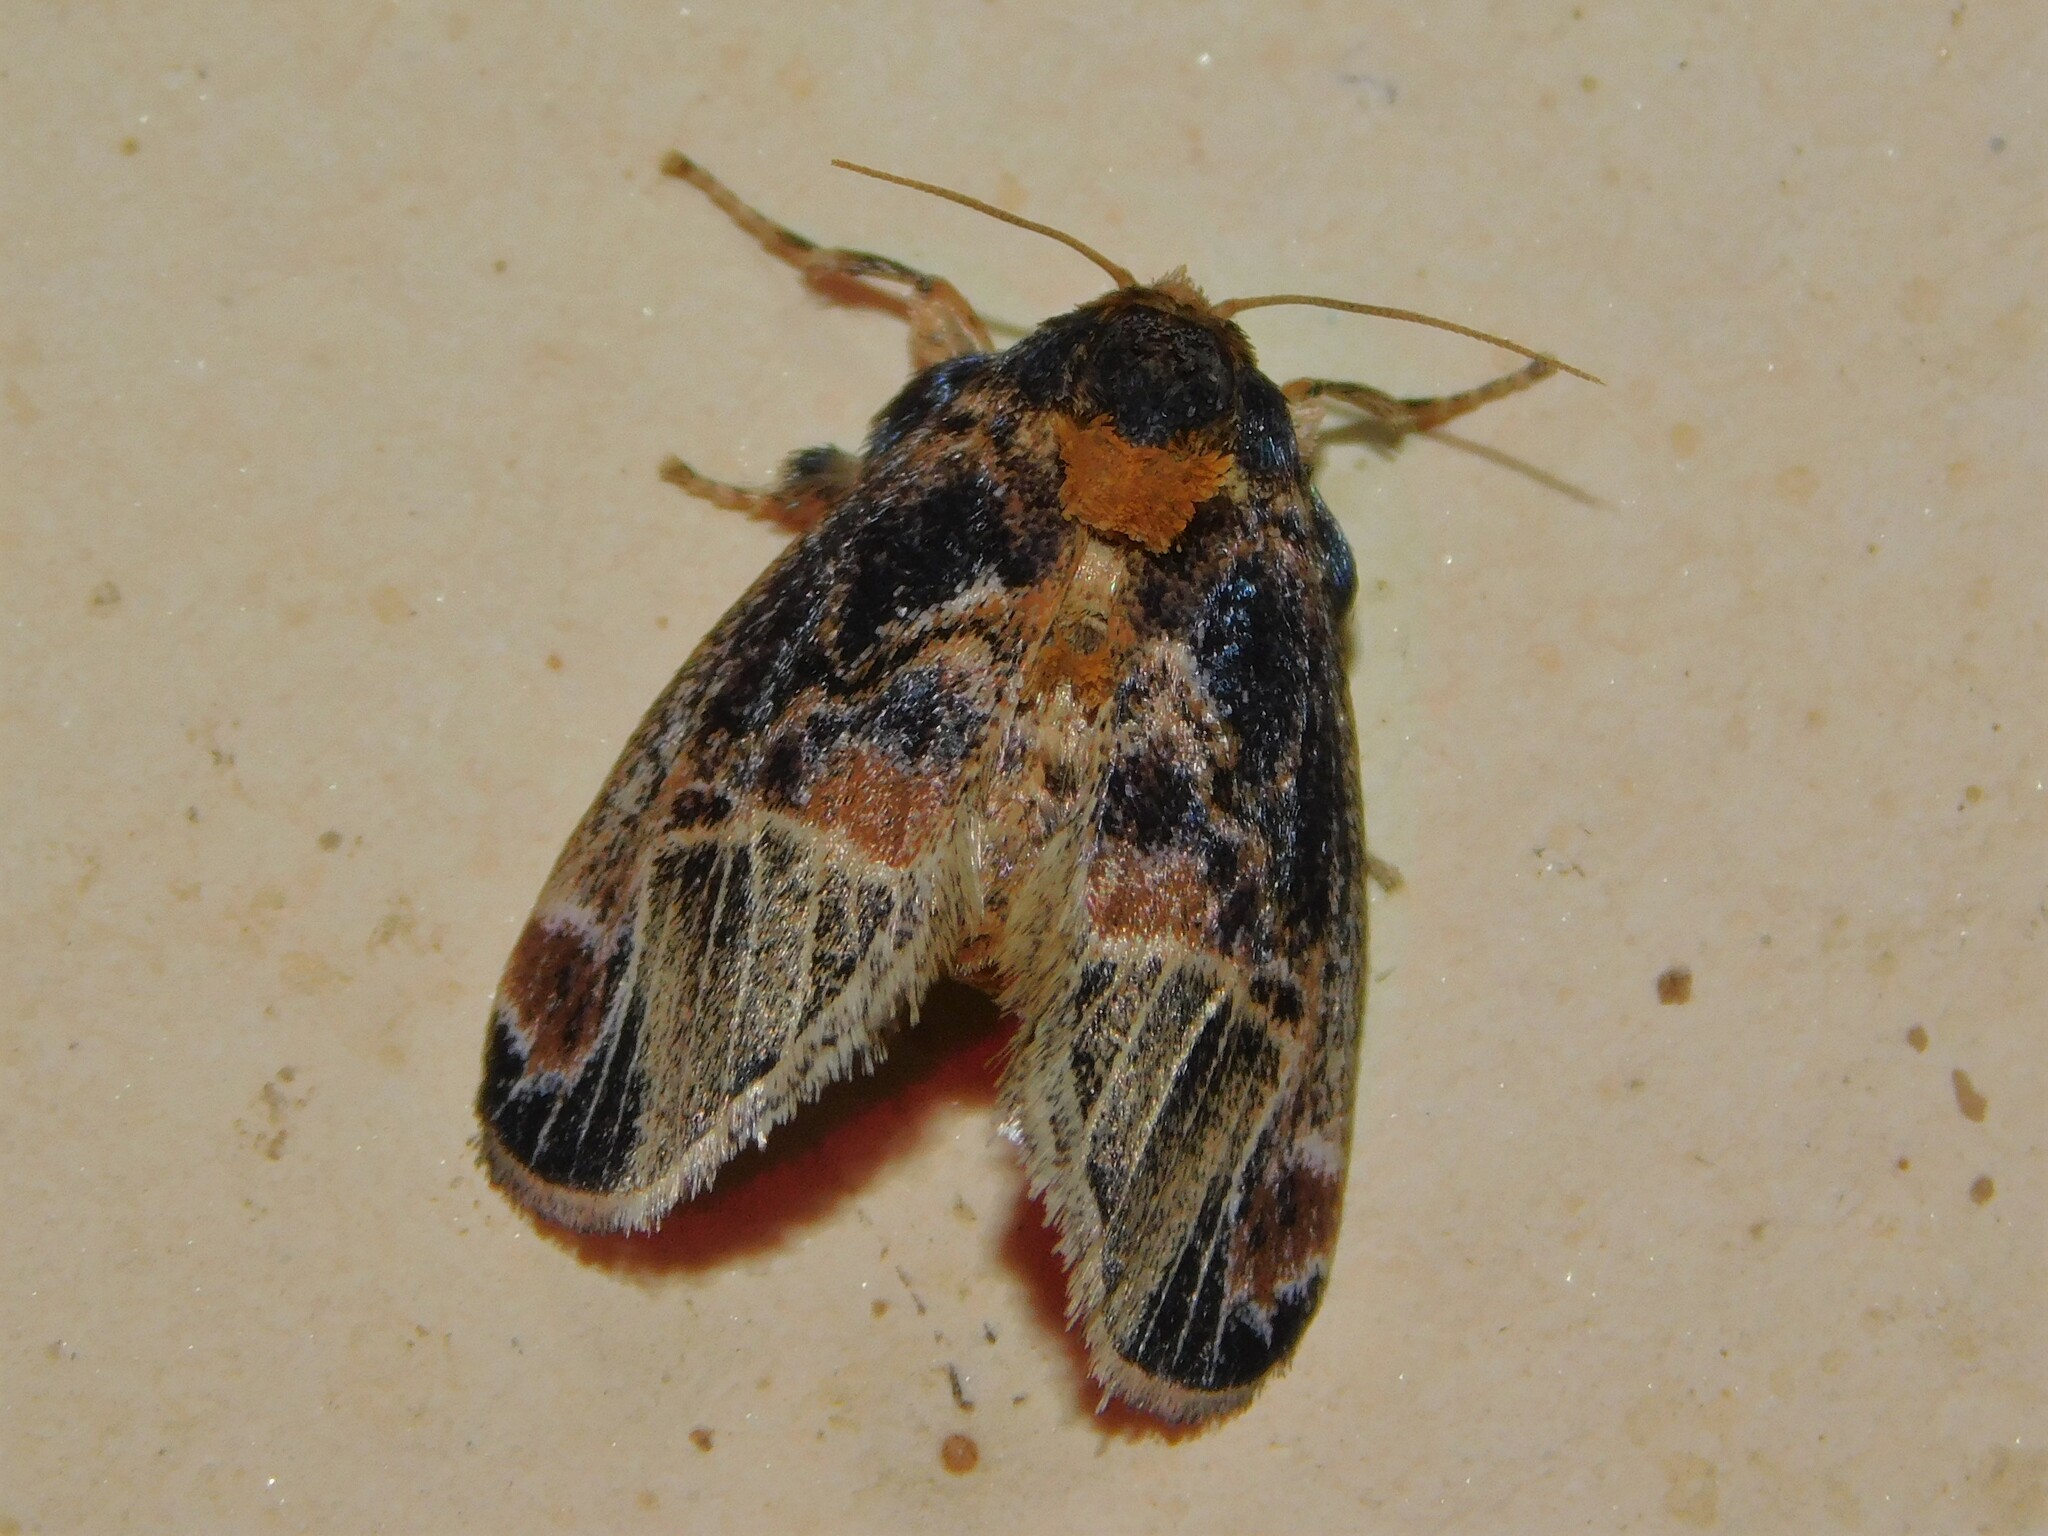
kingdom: Animalia
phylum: Arthropoda
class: Insecta
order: Lepidoptera
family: Limacodidae
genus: Zinara
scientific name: Zinara nervosa
